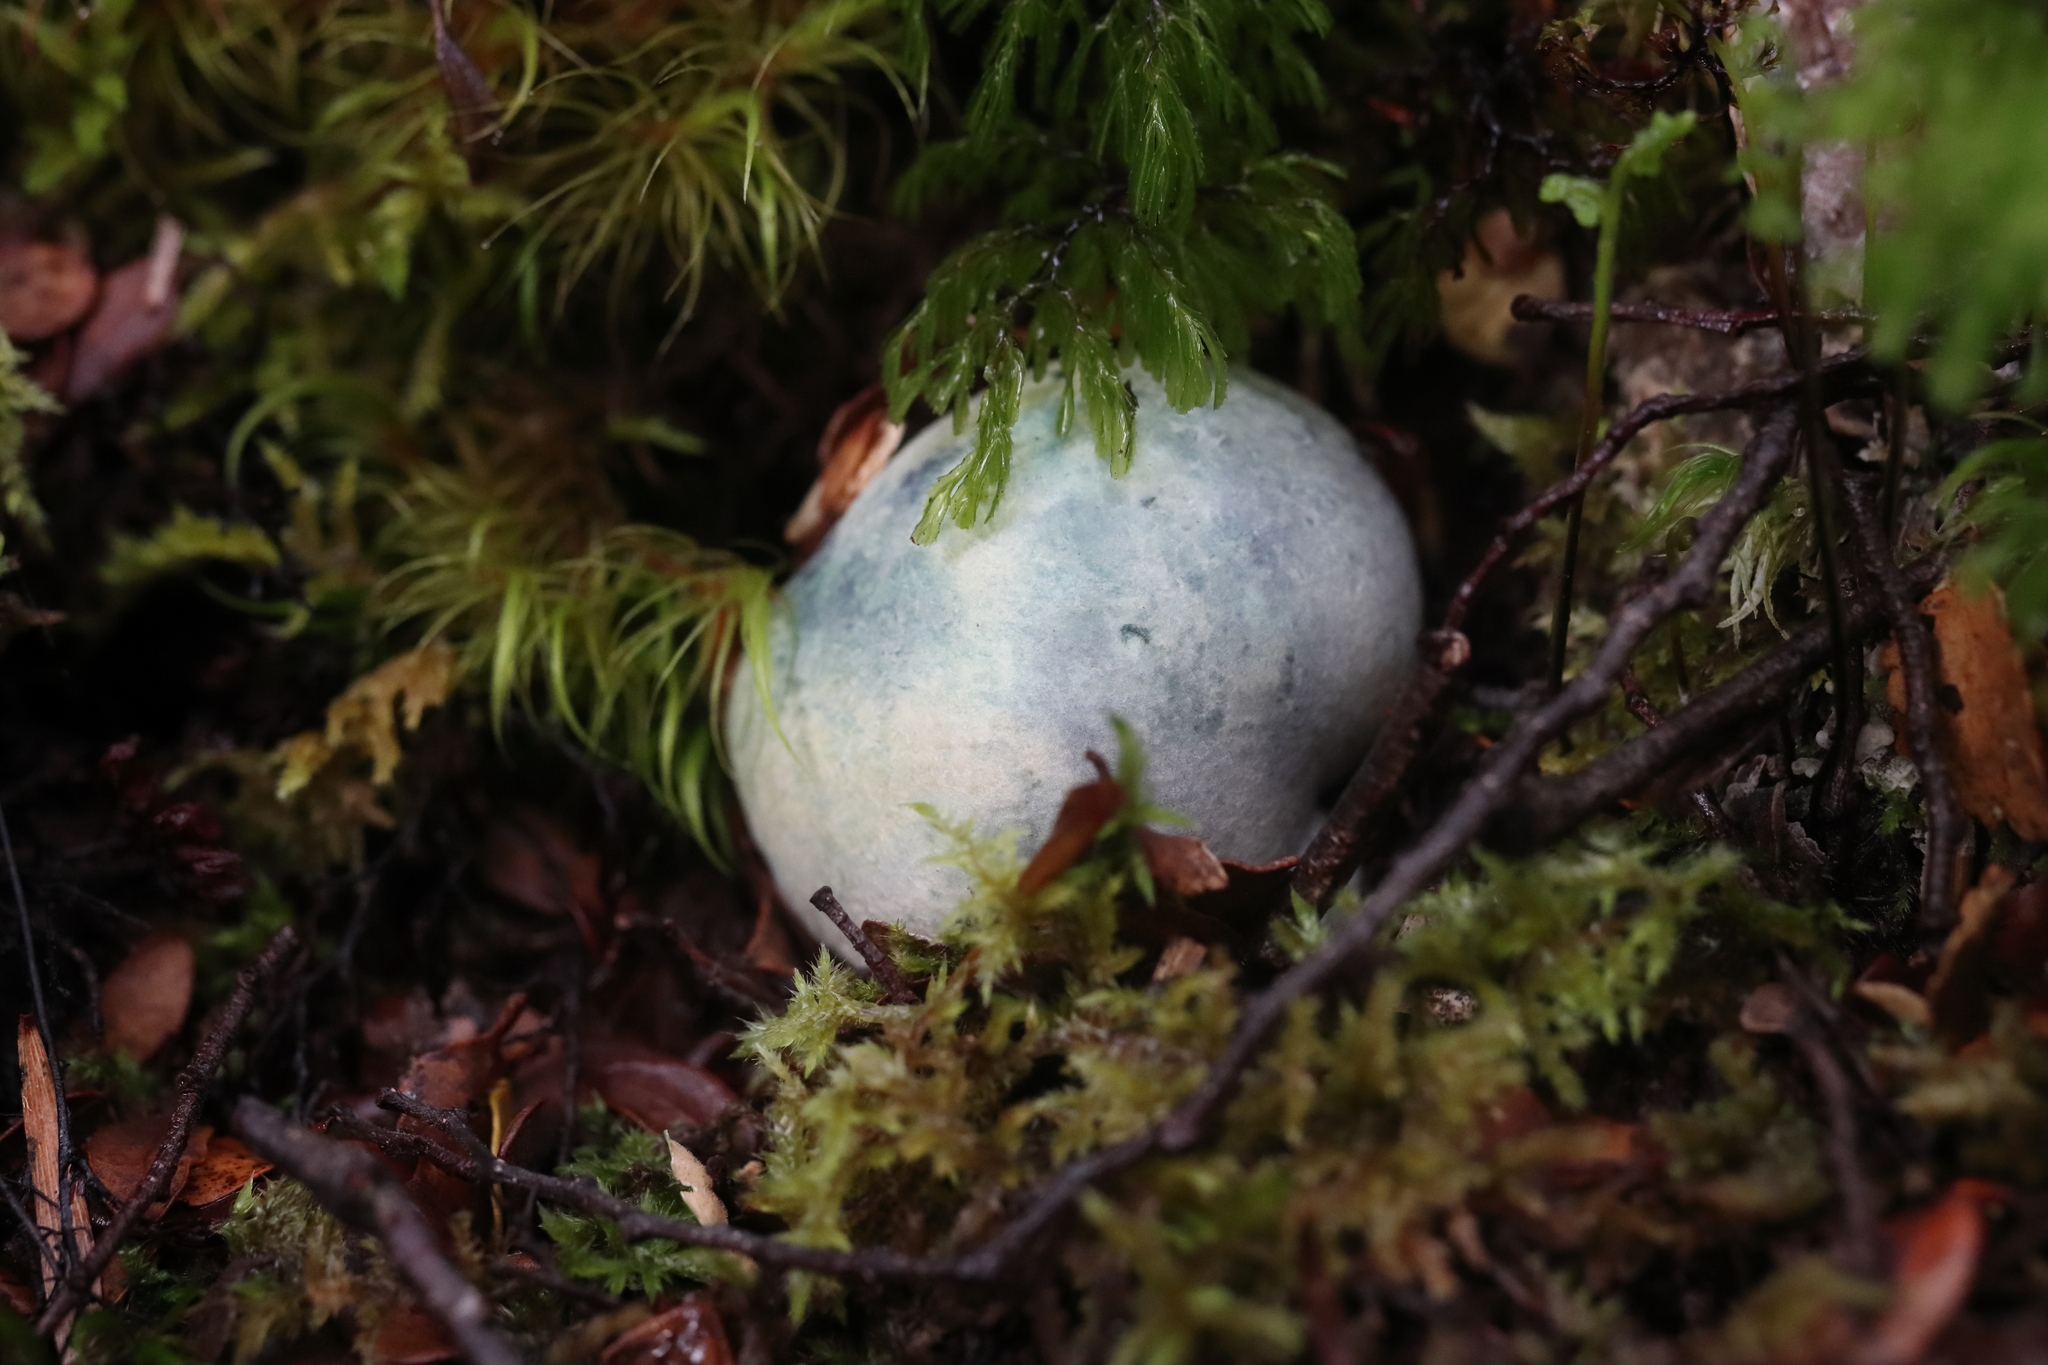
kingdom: Fungi
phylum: Basidiomycota
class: Agaricomycetes
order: Boletales
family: Boletaceae
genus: Leccinum
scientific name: Leccinum pachyderme
